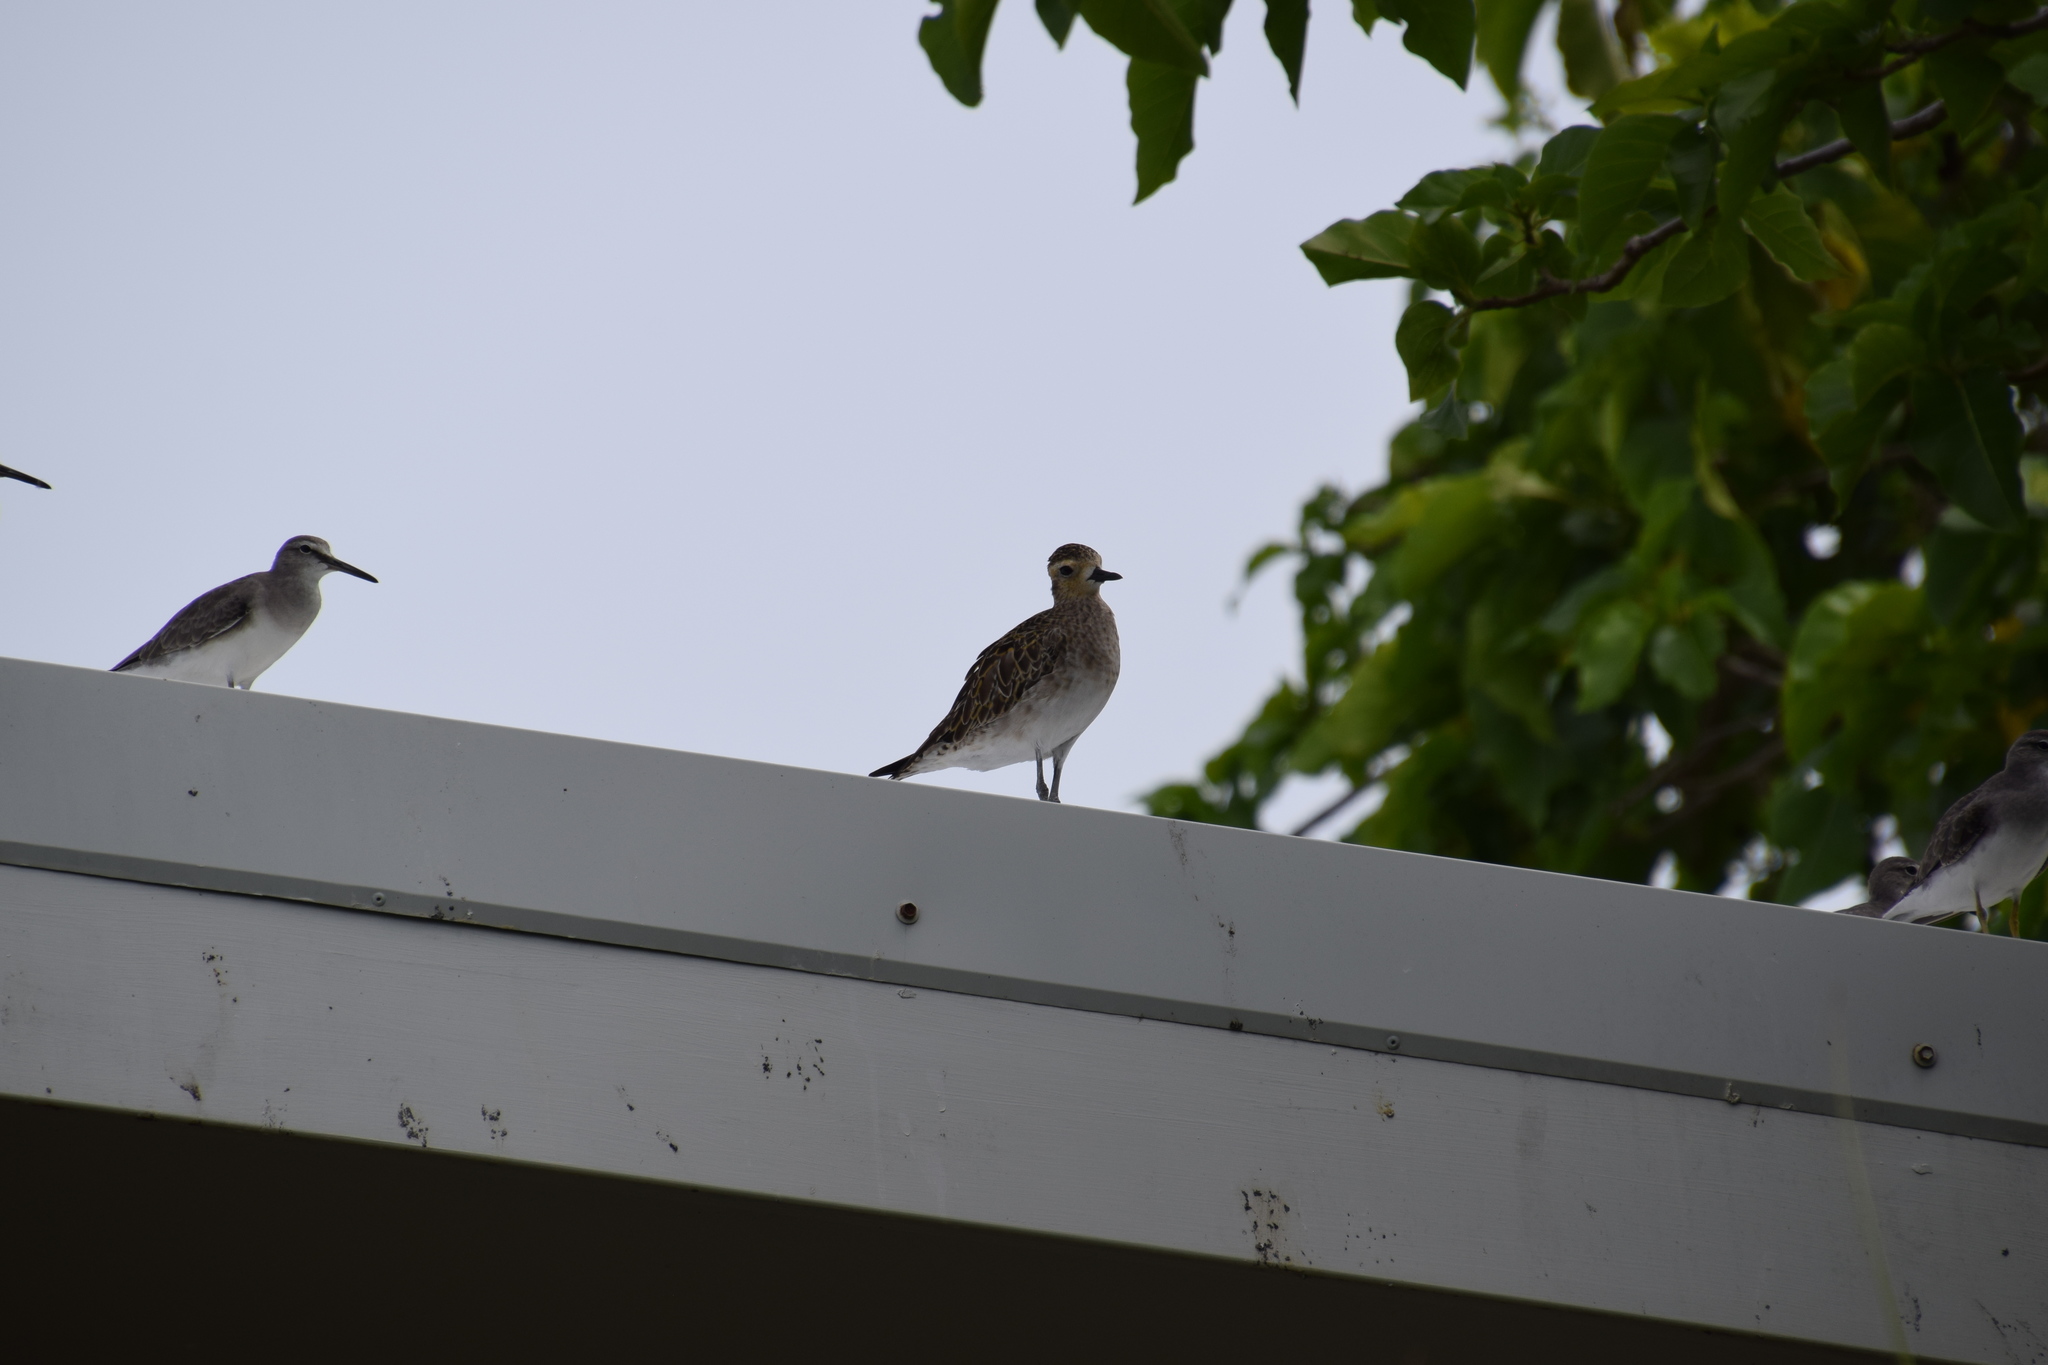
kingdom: Animalia
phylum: Chordata
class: Aves
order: Charadriiformes
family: Charadriidae
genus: Pluvialis
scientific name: Pluvialis fulva
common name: Pacific golden plover
